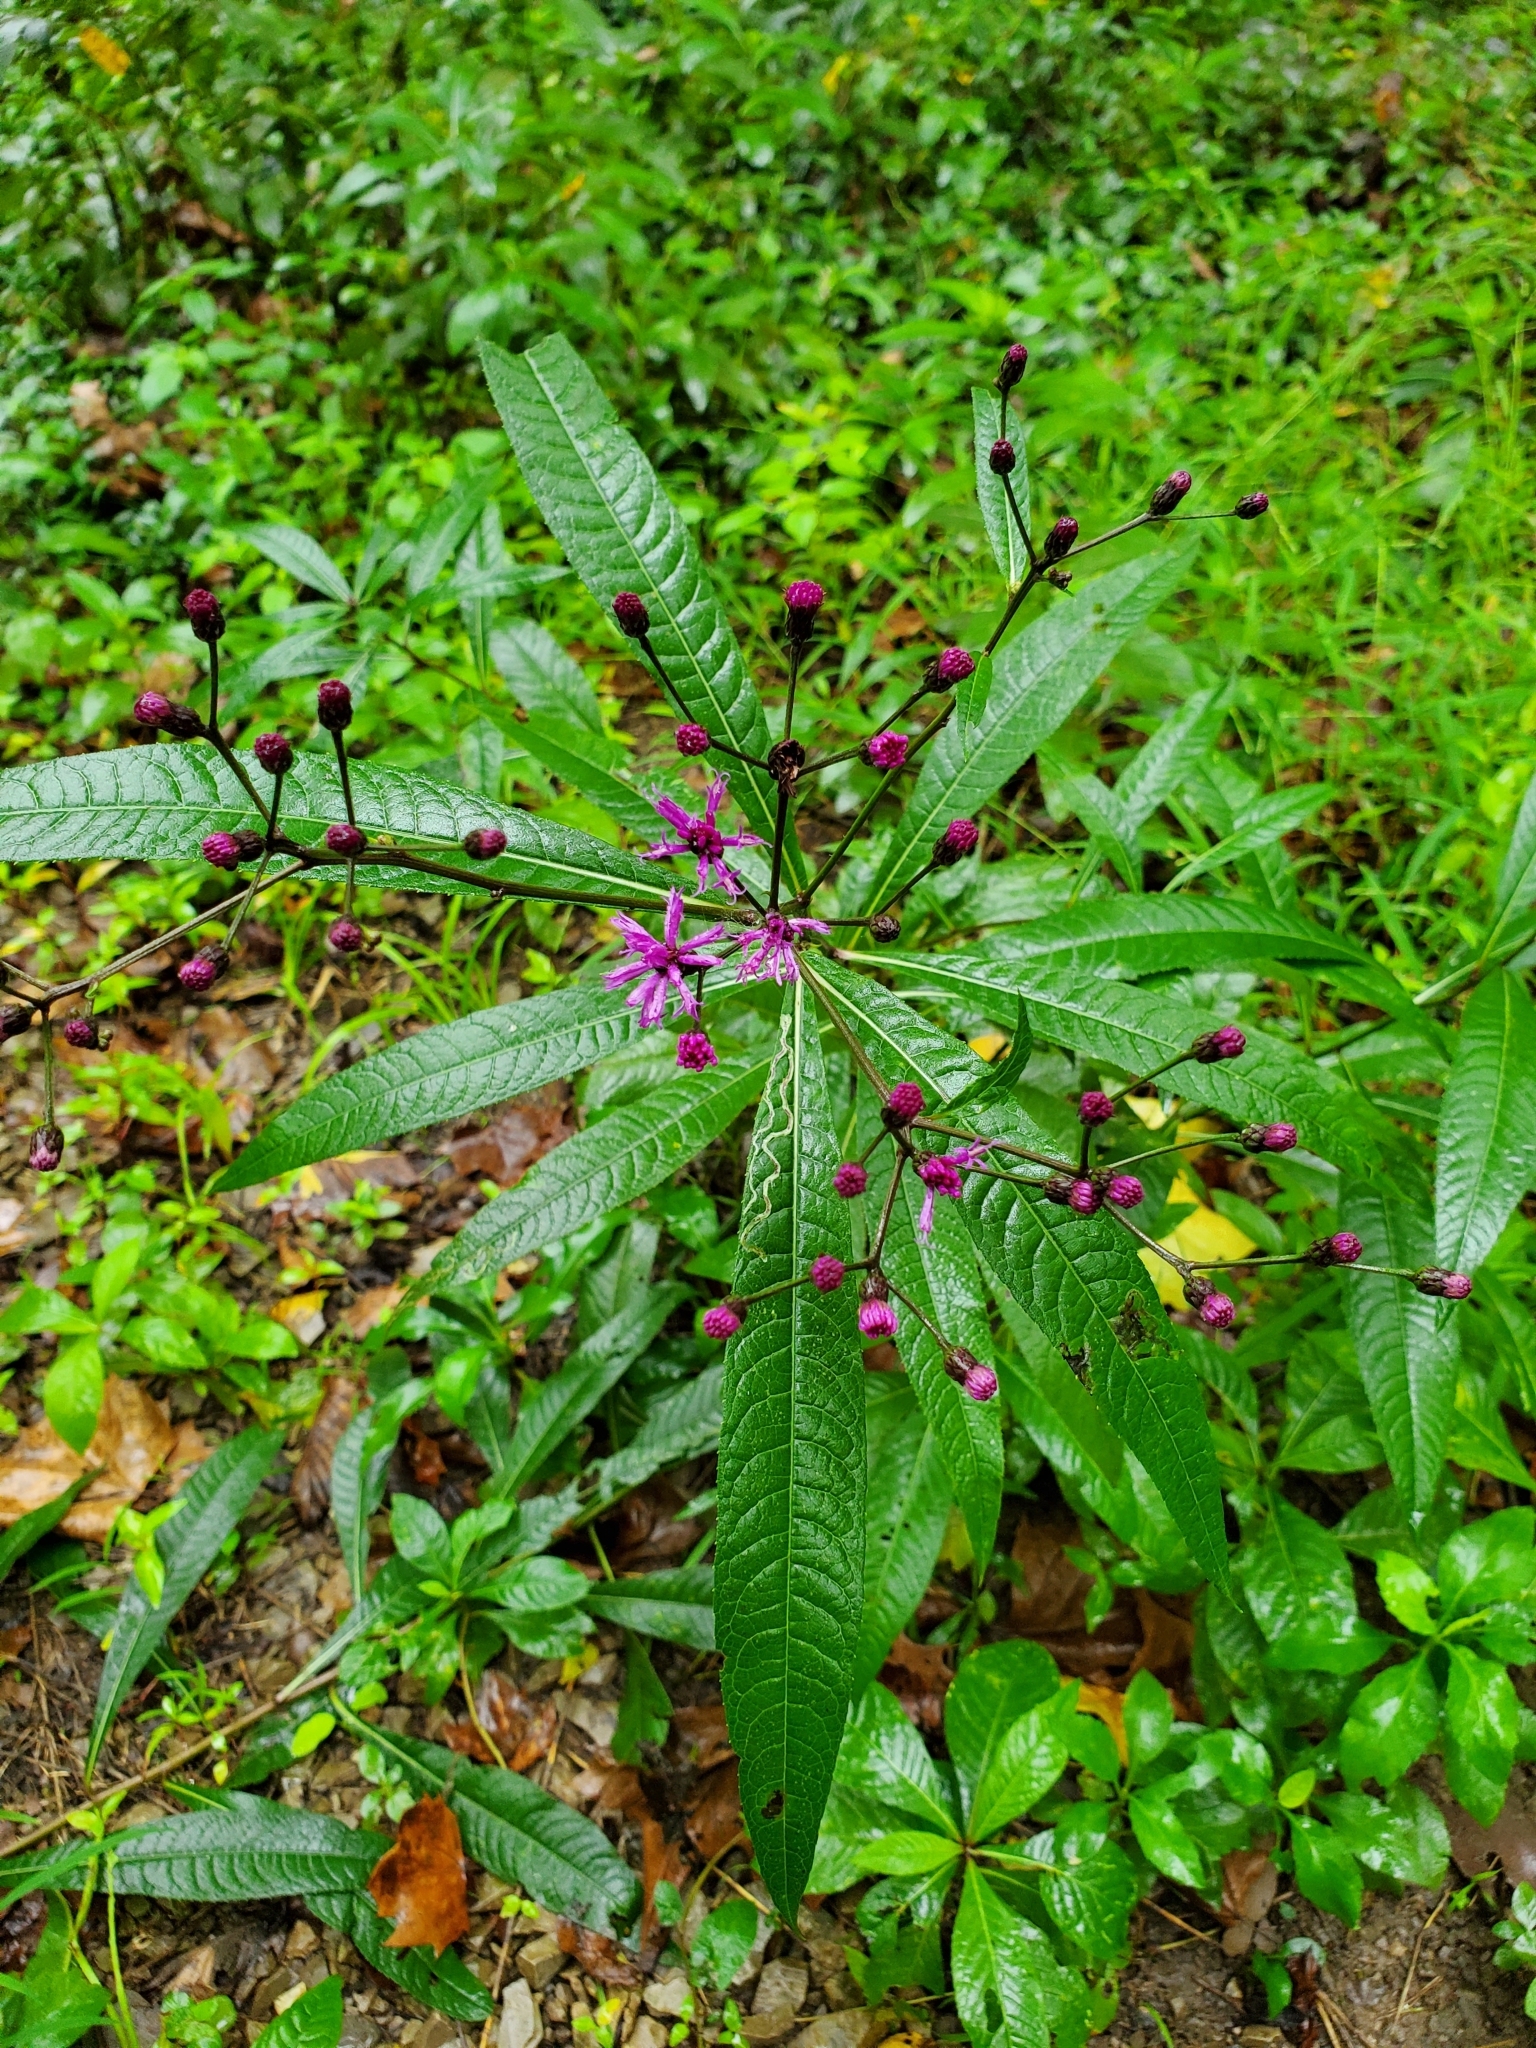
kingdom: Plantae
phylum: Tracheophyta
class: Magnoliopsida
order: Asterales
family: Asteraceae
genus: Vernonia
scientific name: Vernonia gigantea
